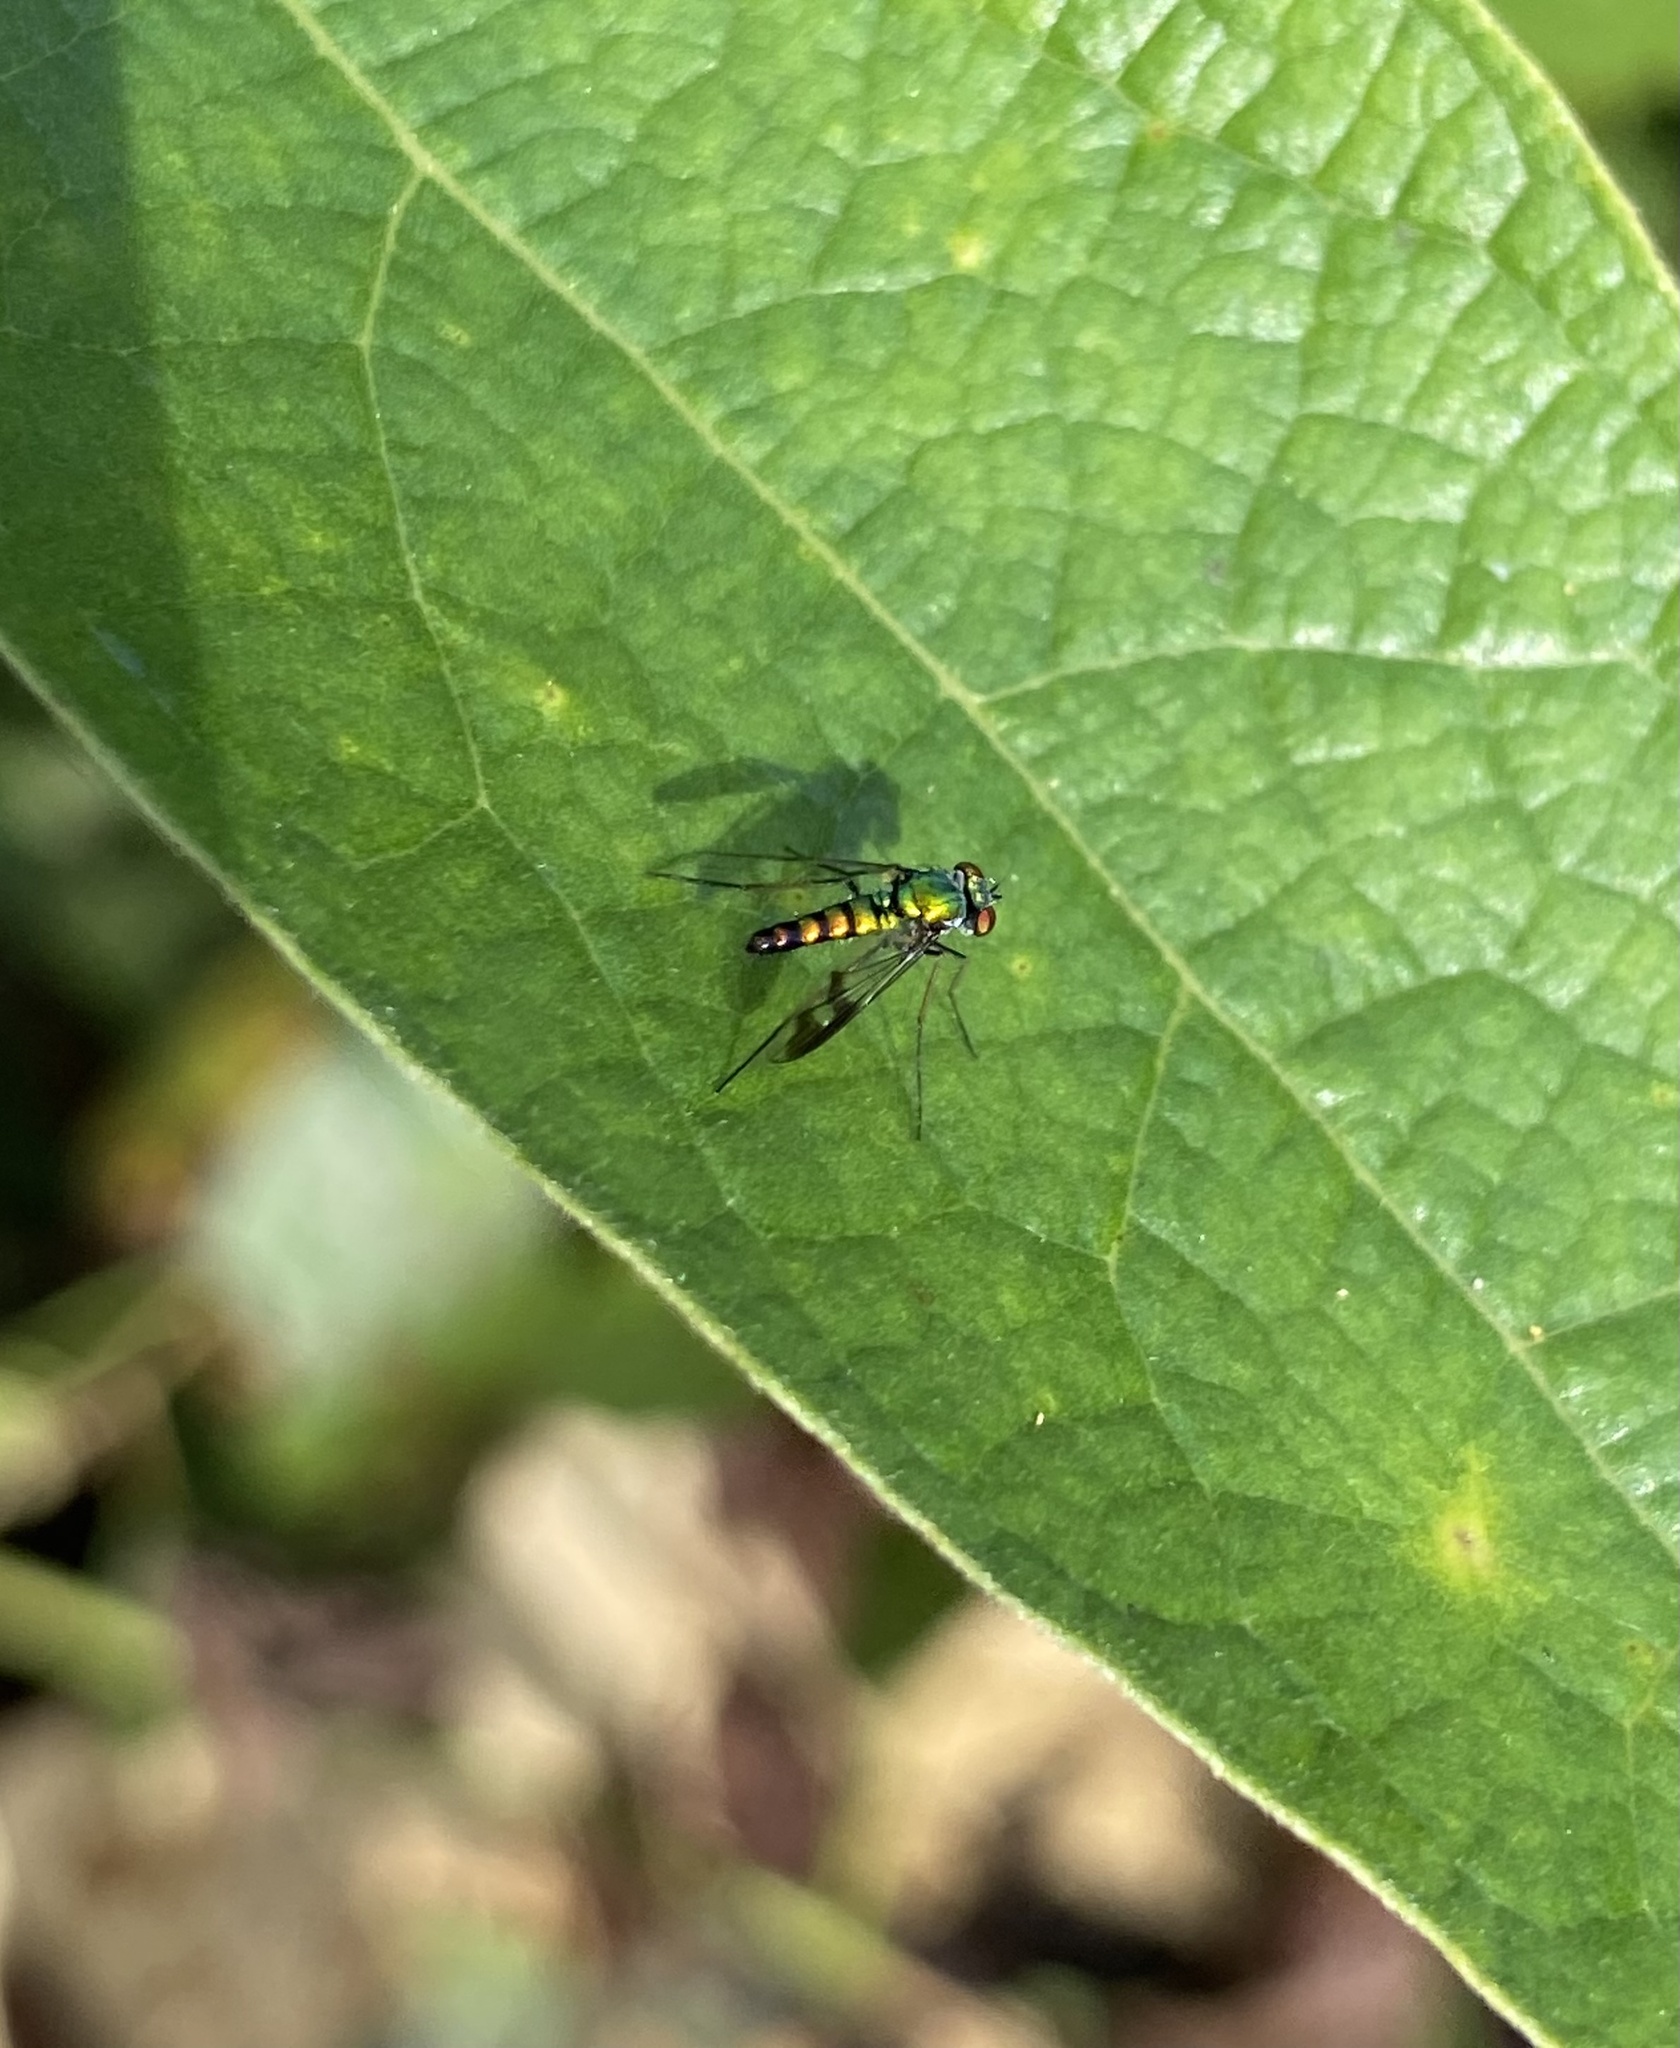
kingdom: Animalia
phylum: Arthropoda
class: Insecta
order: Diptera
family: Dolichopodidae
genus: Condylostylus
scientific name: Condylostylus quadricolor
